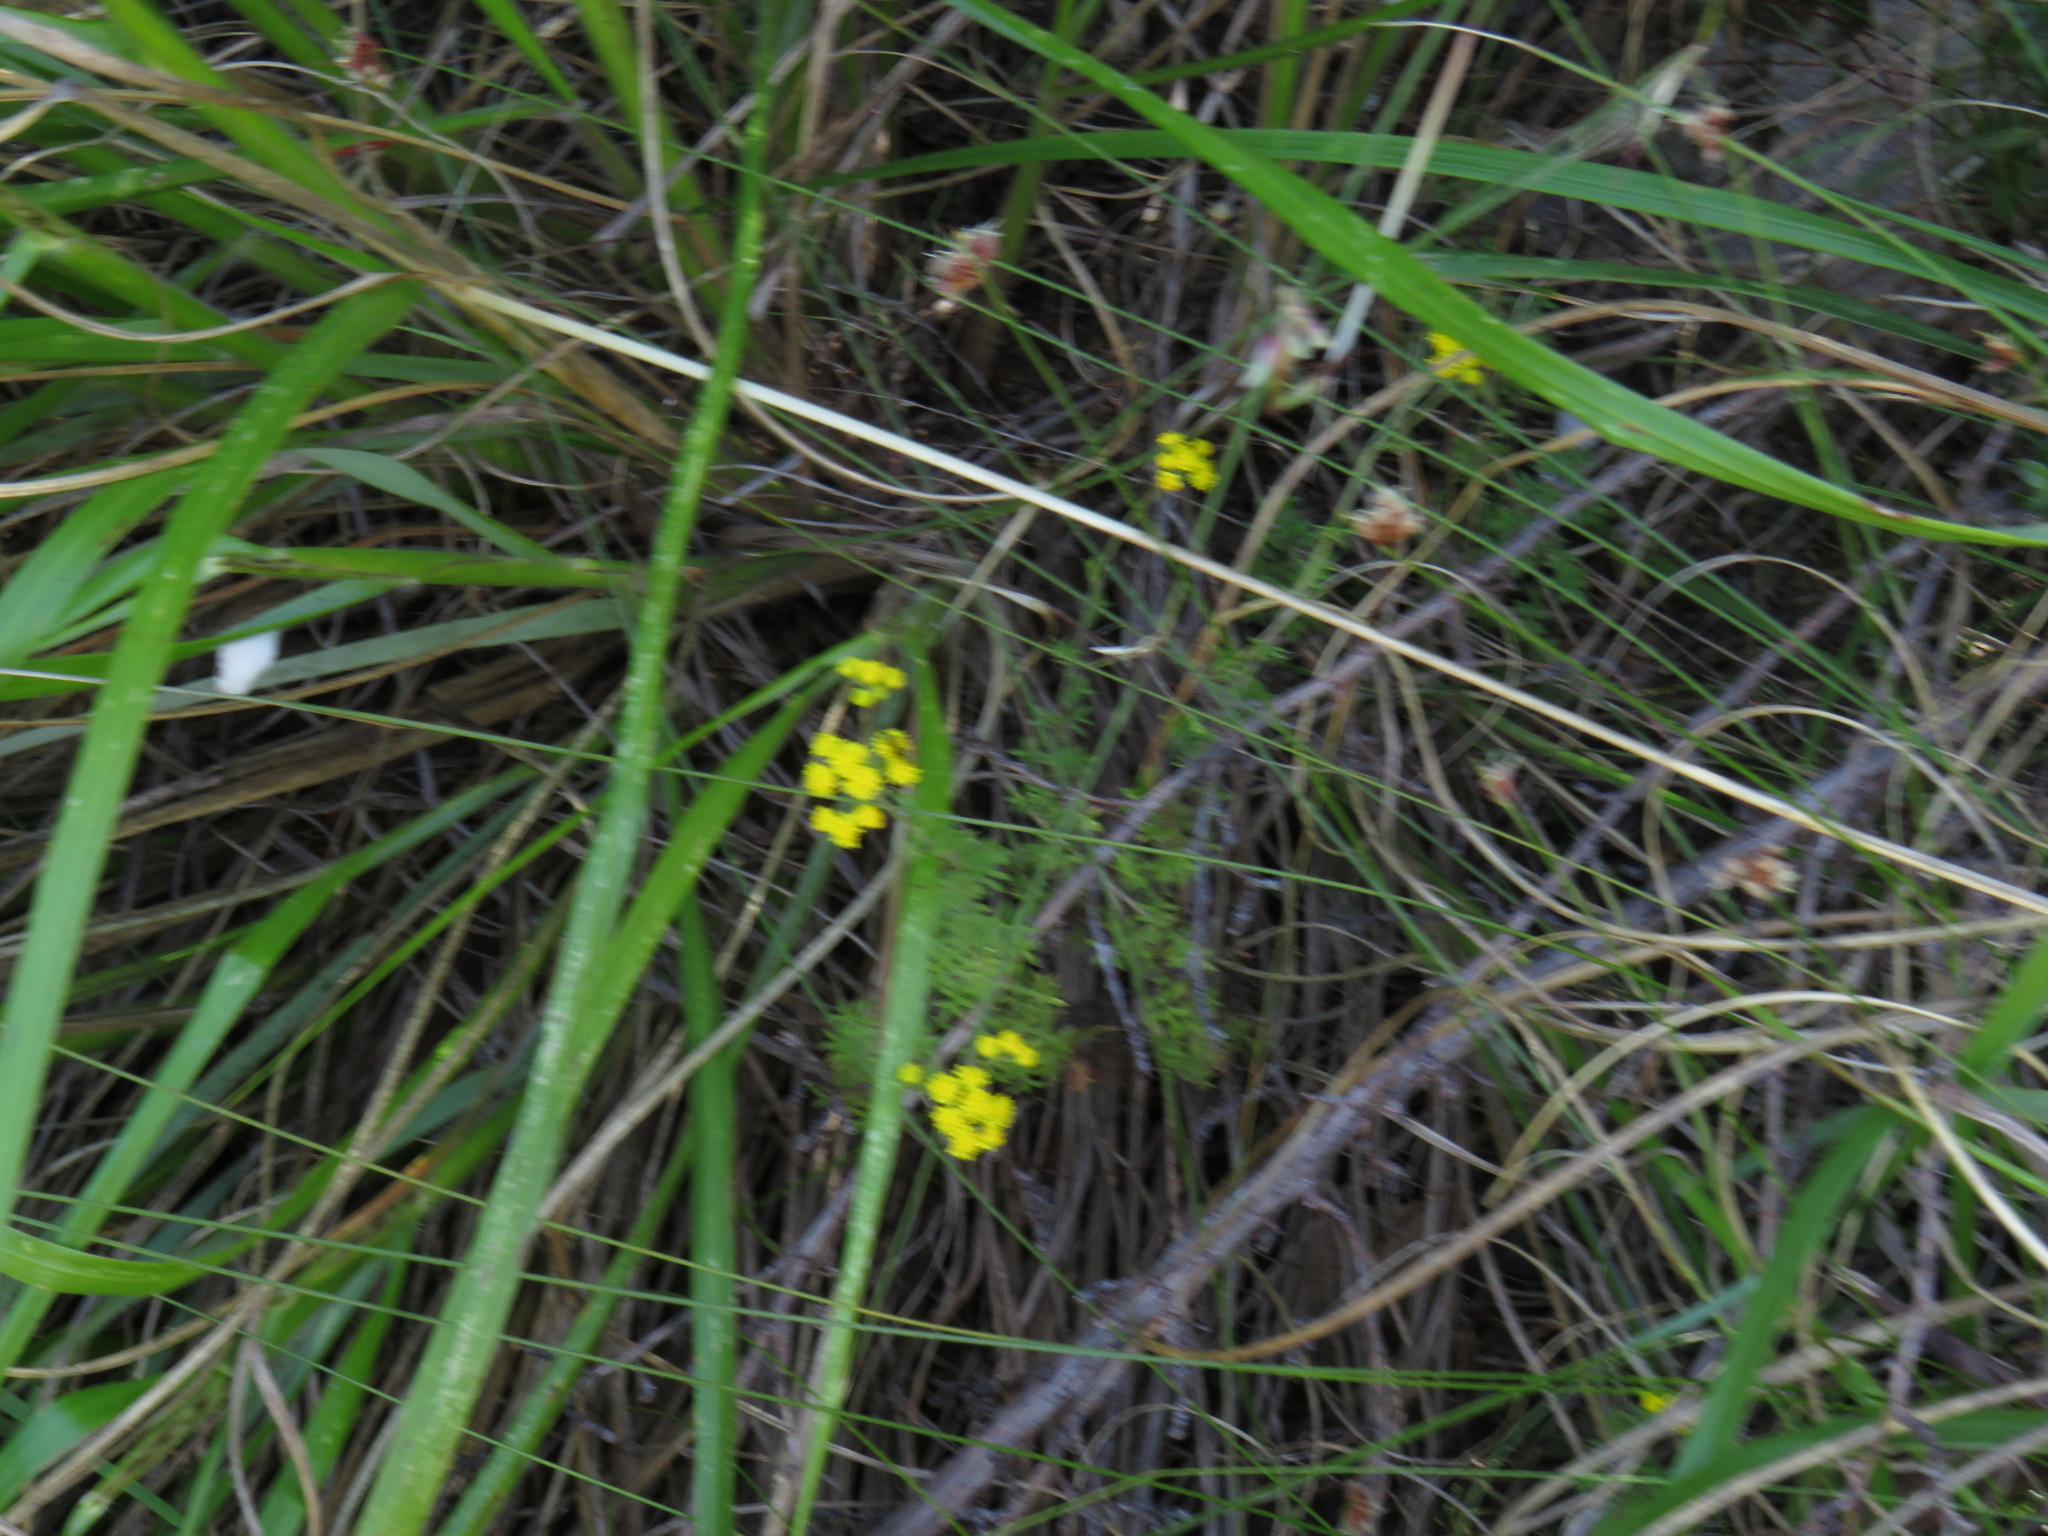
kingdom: Plantae
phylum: Tracheophyta
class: Magnoliopsida
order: Asterales
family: Asteraceae
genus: Hippia
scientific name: Hippia pilosa
